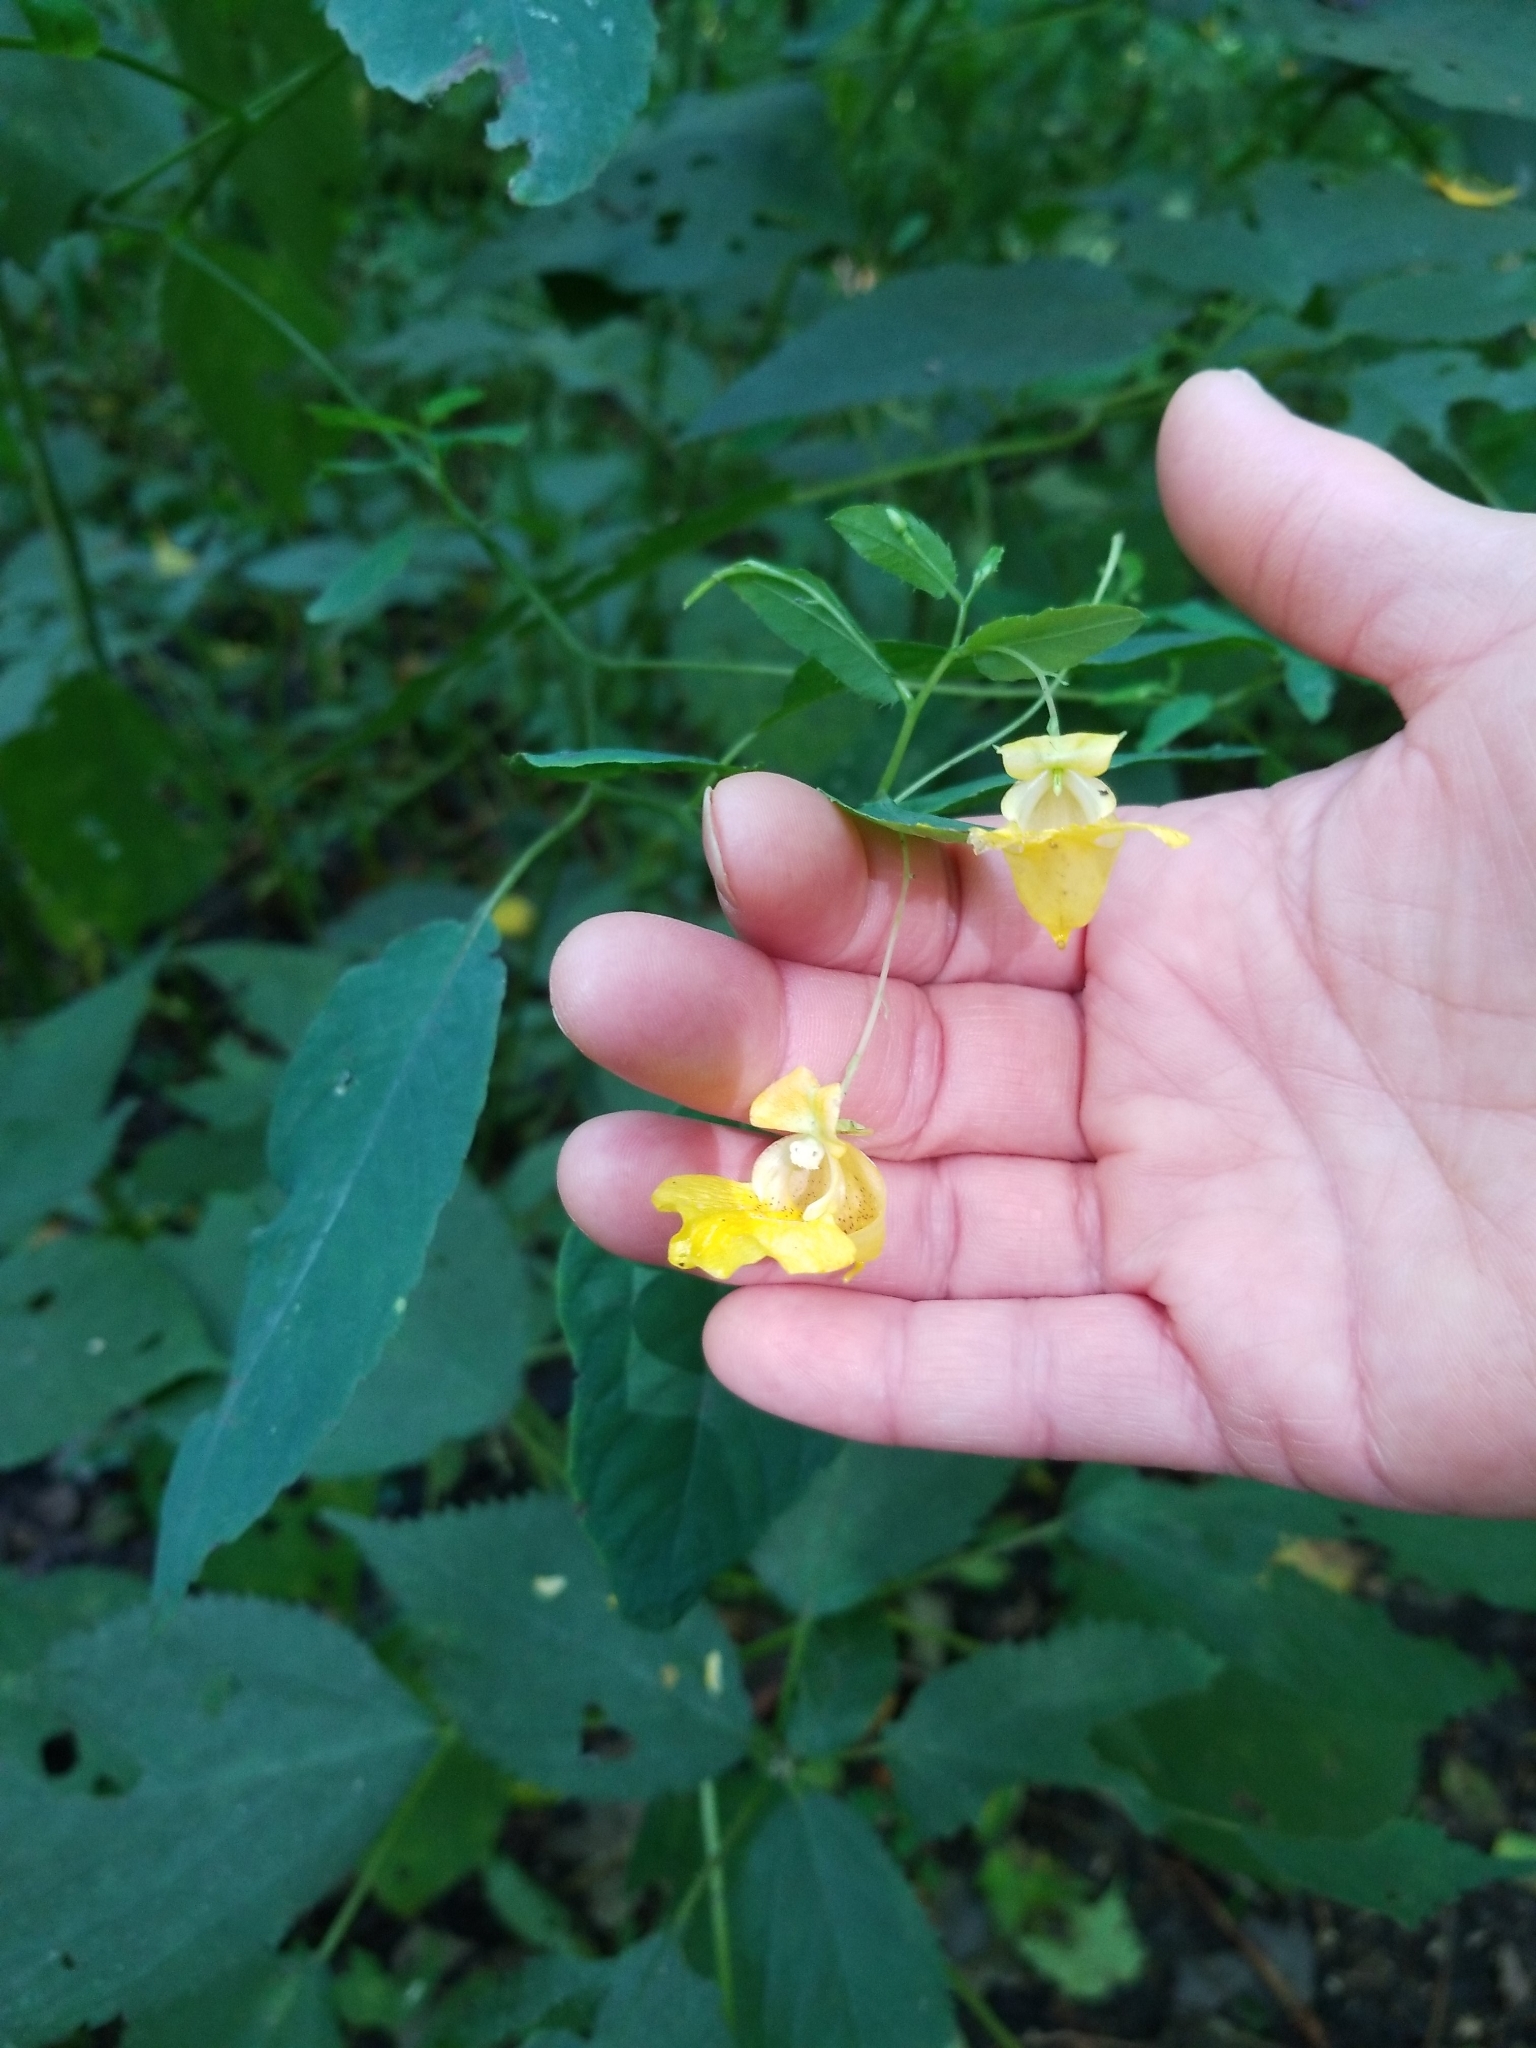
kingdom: Plantae
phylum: Tracheophyta
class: Magnoliopsida
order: Ericales
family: Balsaminaceae
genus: Impatiens
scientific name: Impatiens pallida
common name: Pale snapweed
